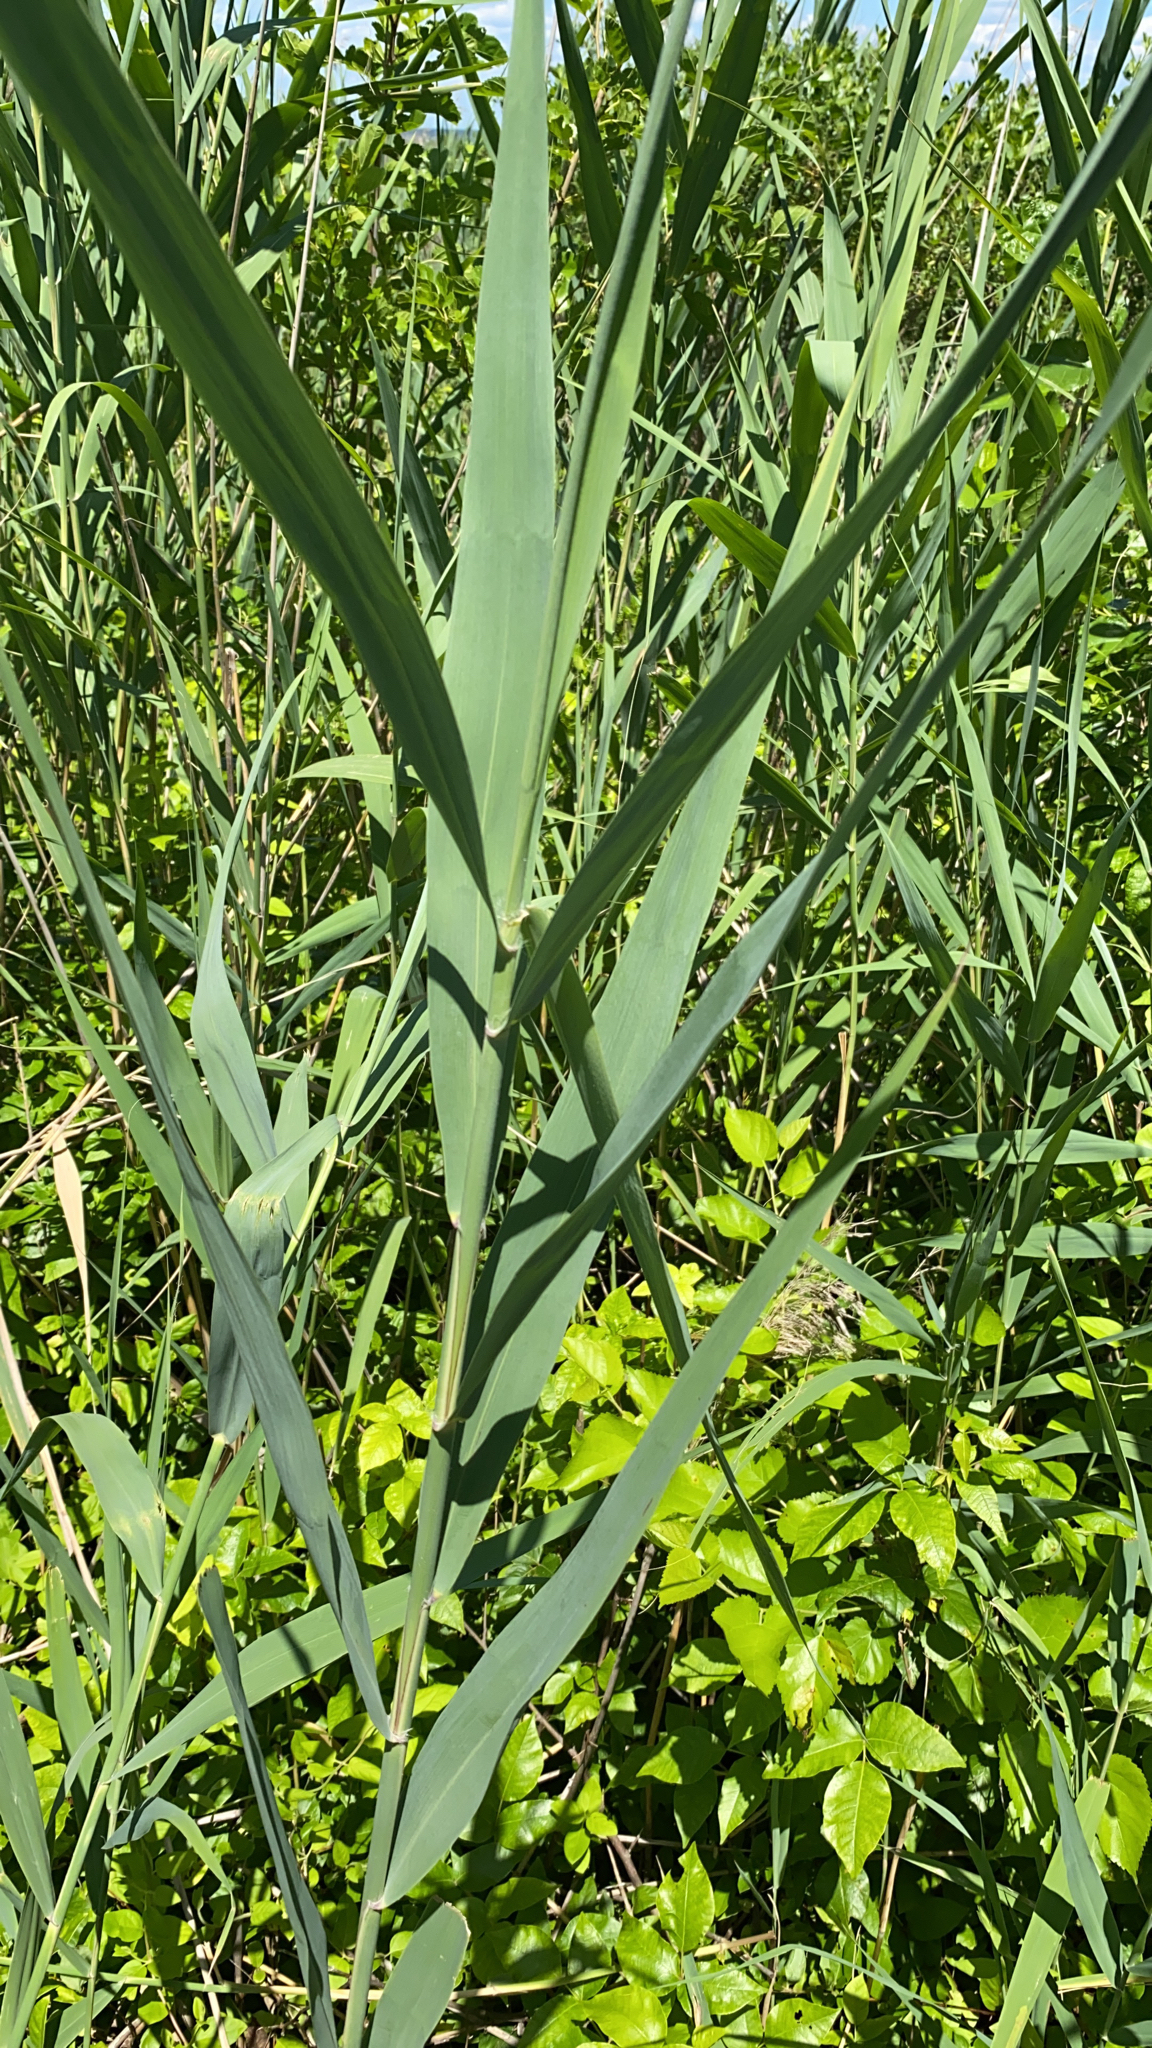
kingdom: Plantae
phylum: Tracheophyta
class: Liliopsida
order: Poales
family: Poaceae
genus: Phragmites
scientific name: Phragmites australis
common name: Common reed
